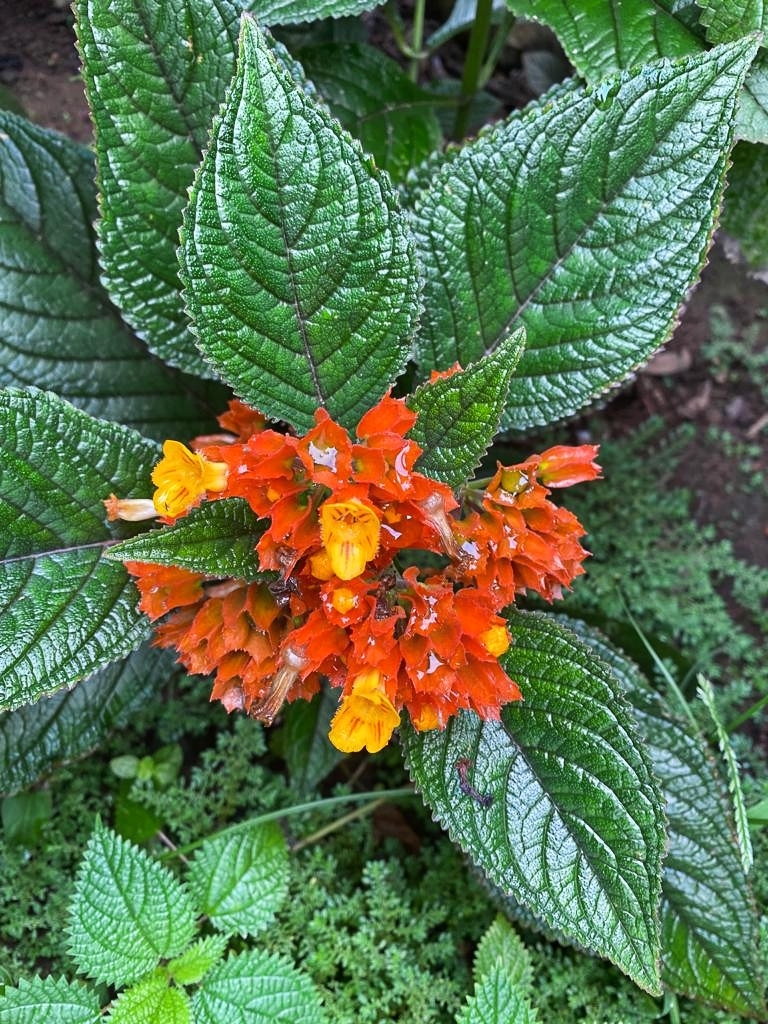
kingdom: Plantae
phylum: Tracheophyta
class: Magnoliopsida
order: Lamiales
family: Gesneriaceae
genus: Chrysothemis
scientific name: Chrysothemis pulchella
